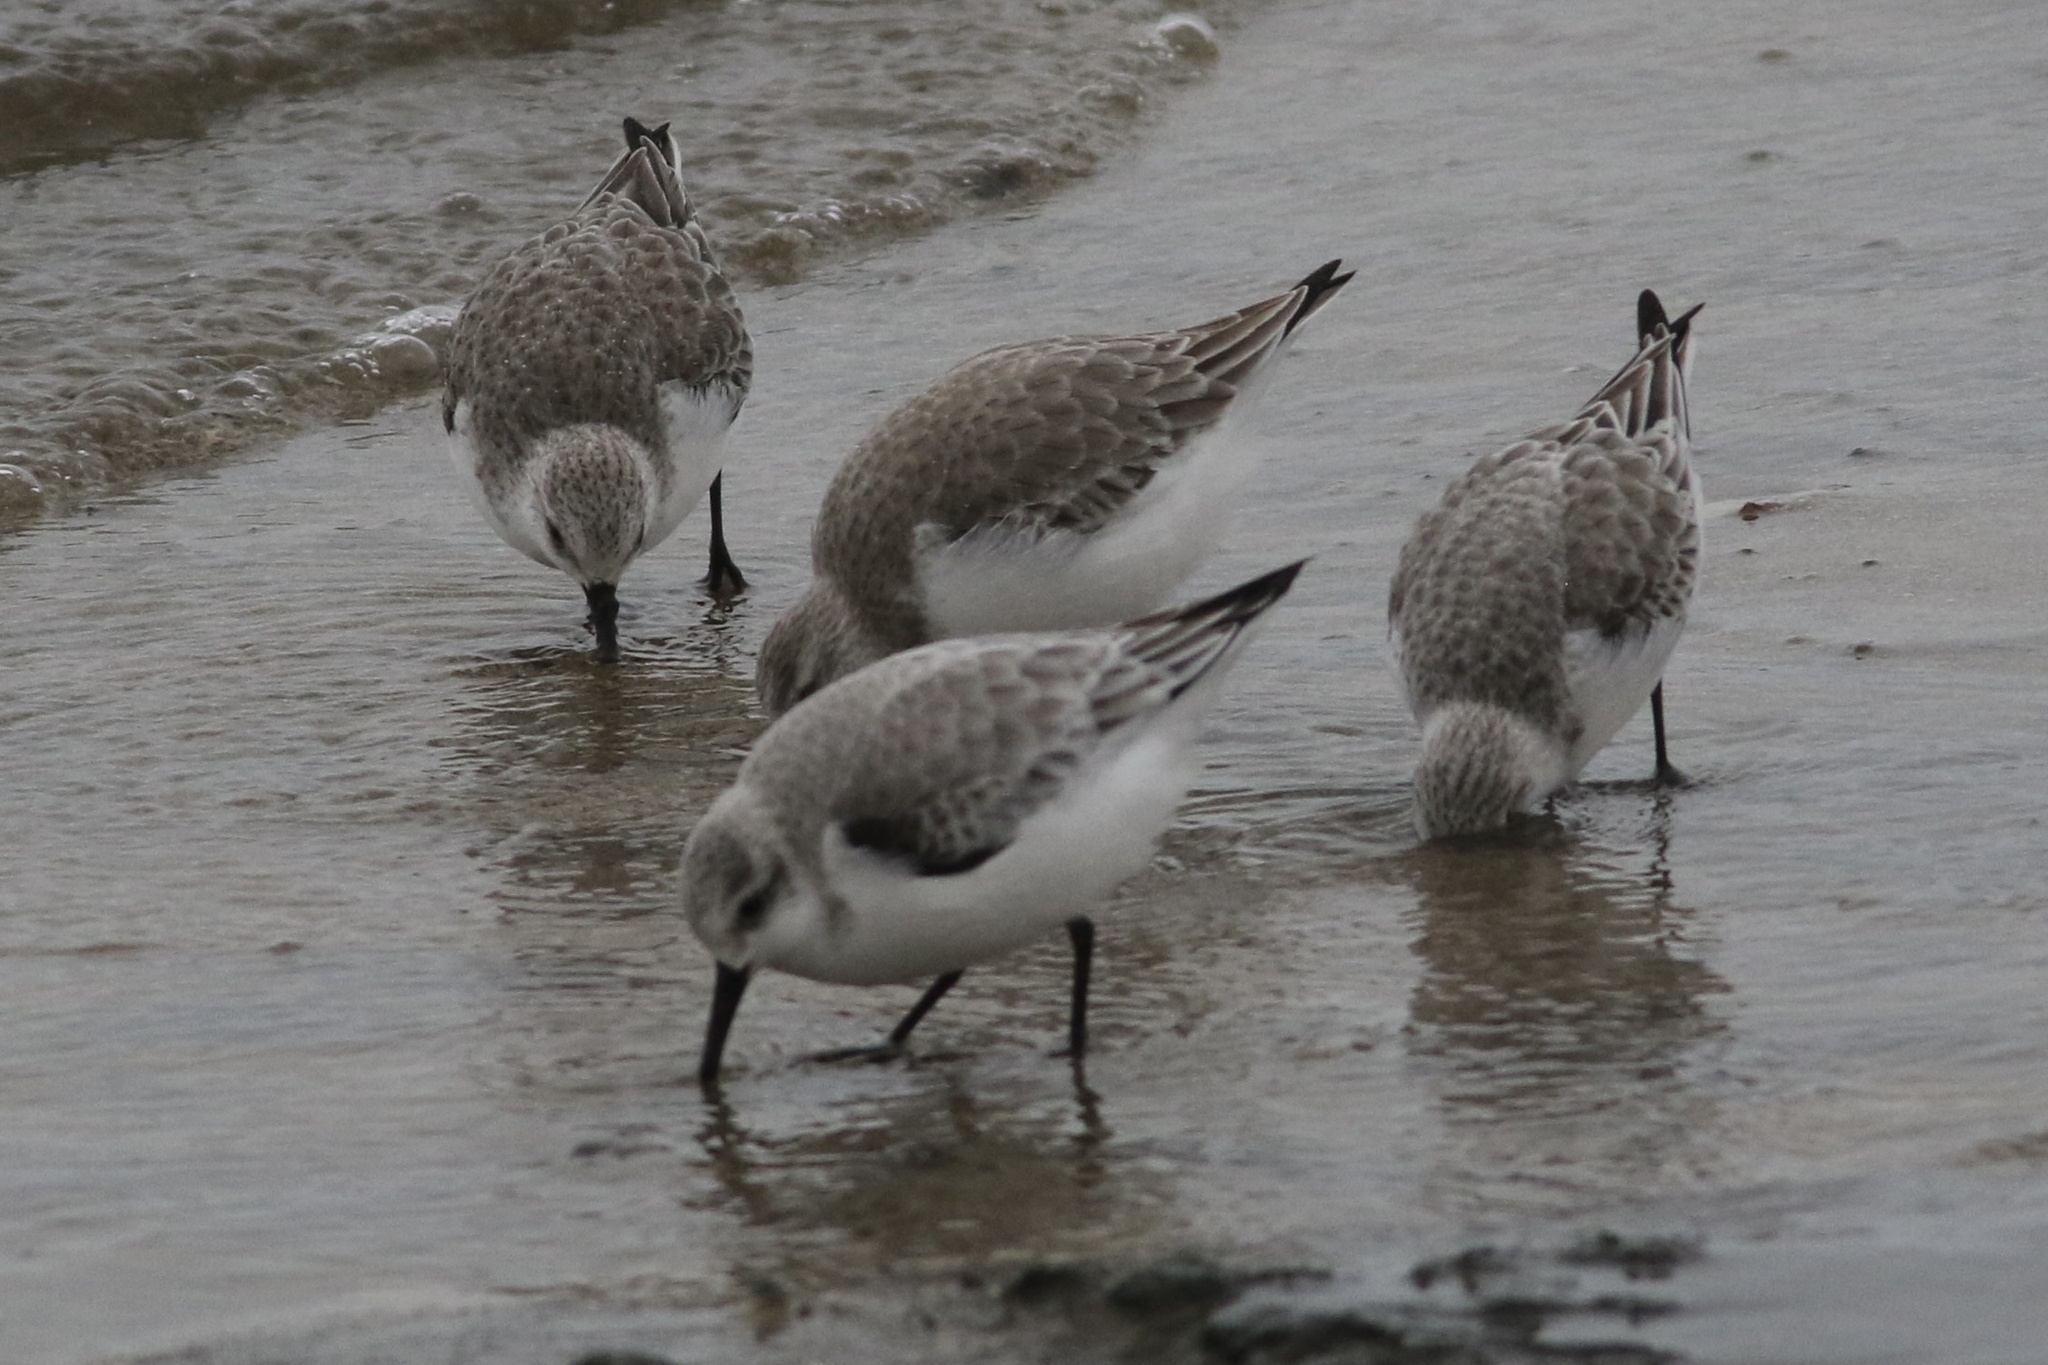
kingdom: Animalia
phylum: Chordata
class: Aves
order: Charadriiformes
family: Scolopacidae
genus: Calidris
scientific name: Calidris alba
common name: Sanderling
